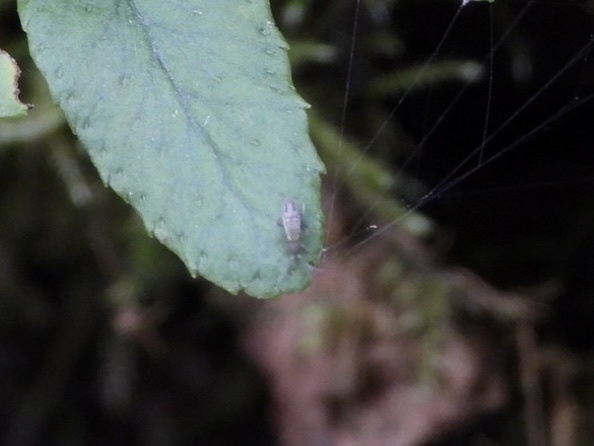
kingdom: Animalia
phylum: Arthropoda
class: Collembola
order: Entomobryomorpha
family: Entomobryidae
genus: Entomobrya
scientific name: Entomobrya nivalis
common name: Cosmopolitan springtail
